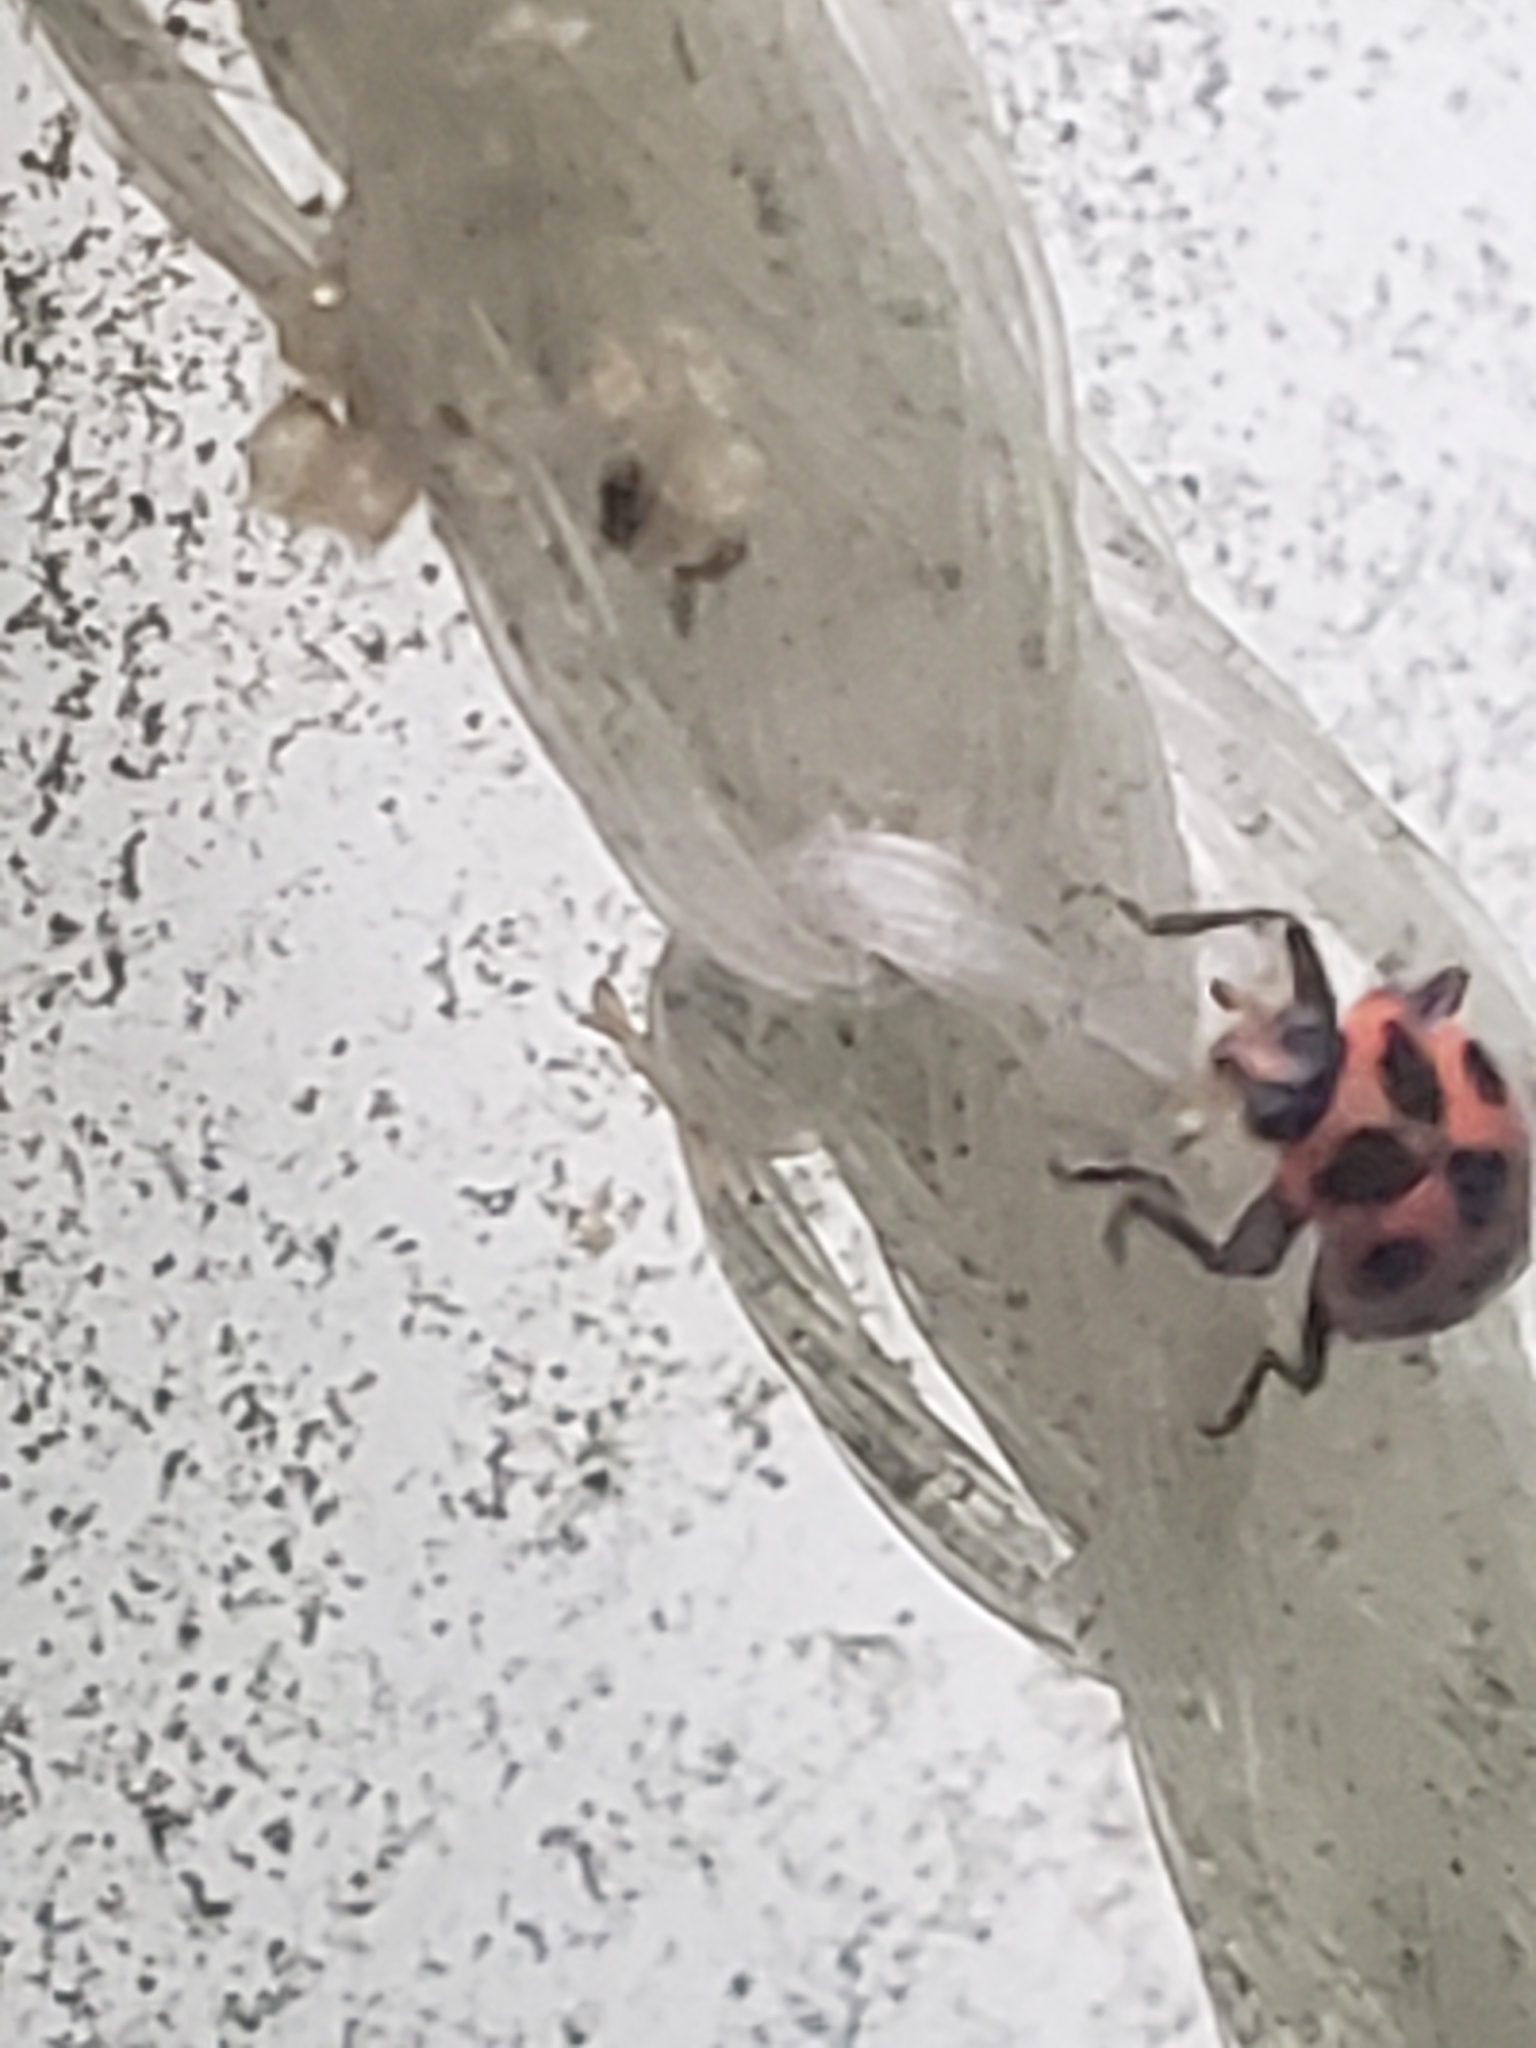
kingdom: Animalia
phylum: Arthropoda
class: Insecta
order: Coleoptera
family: Coccinellidae
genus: Coleomegilla
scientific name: Coleomegilla maculata
